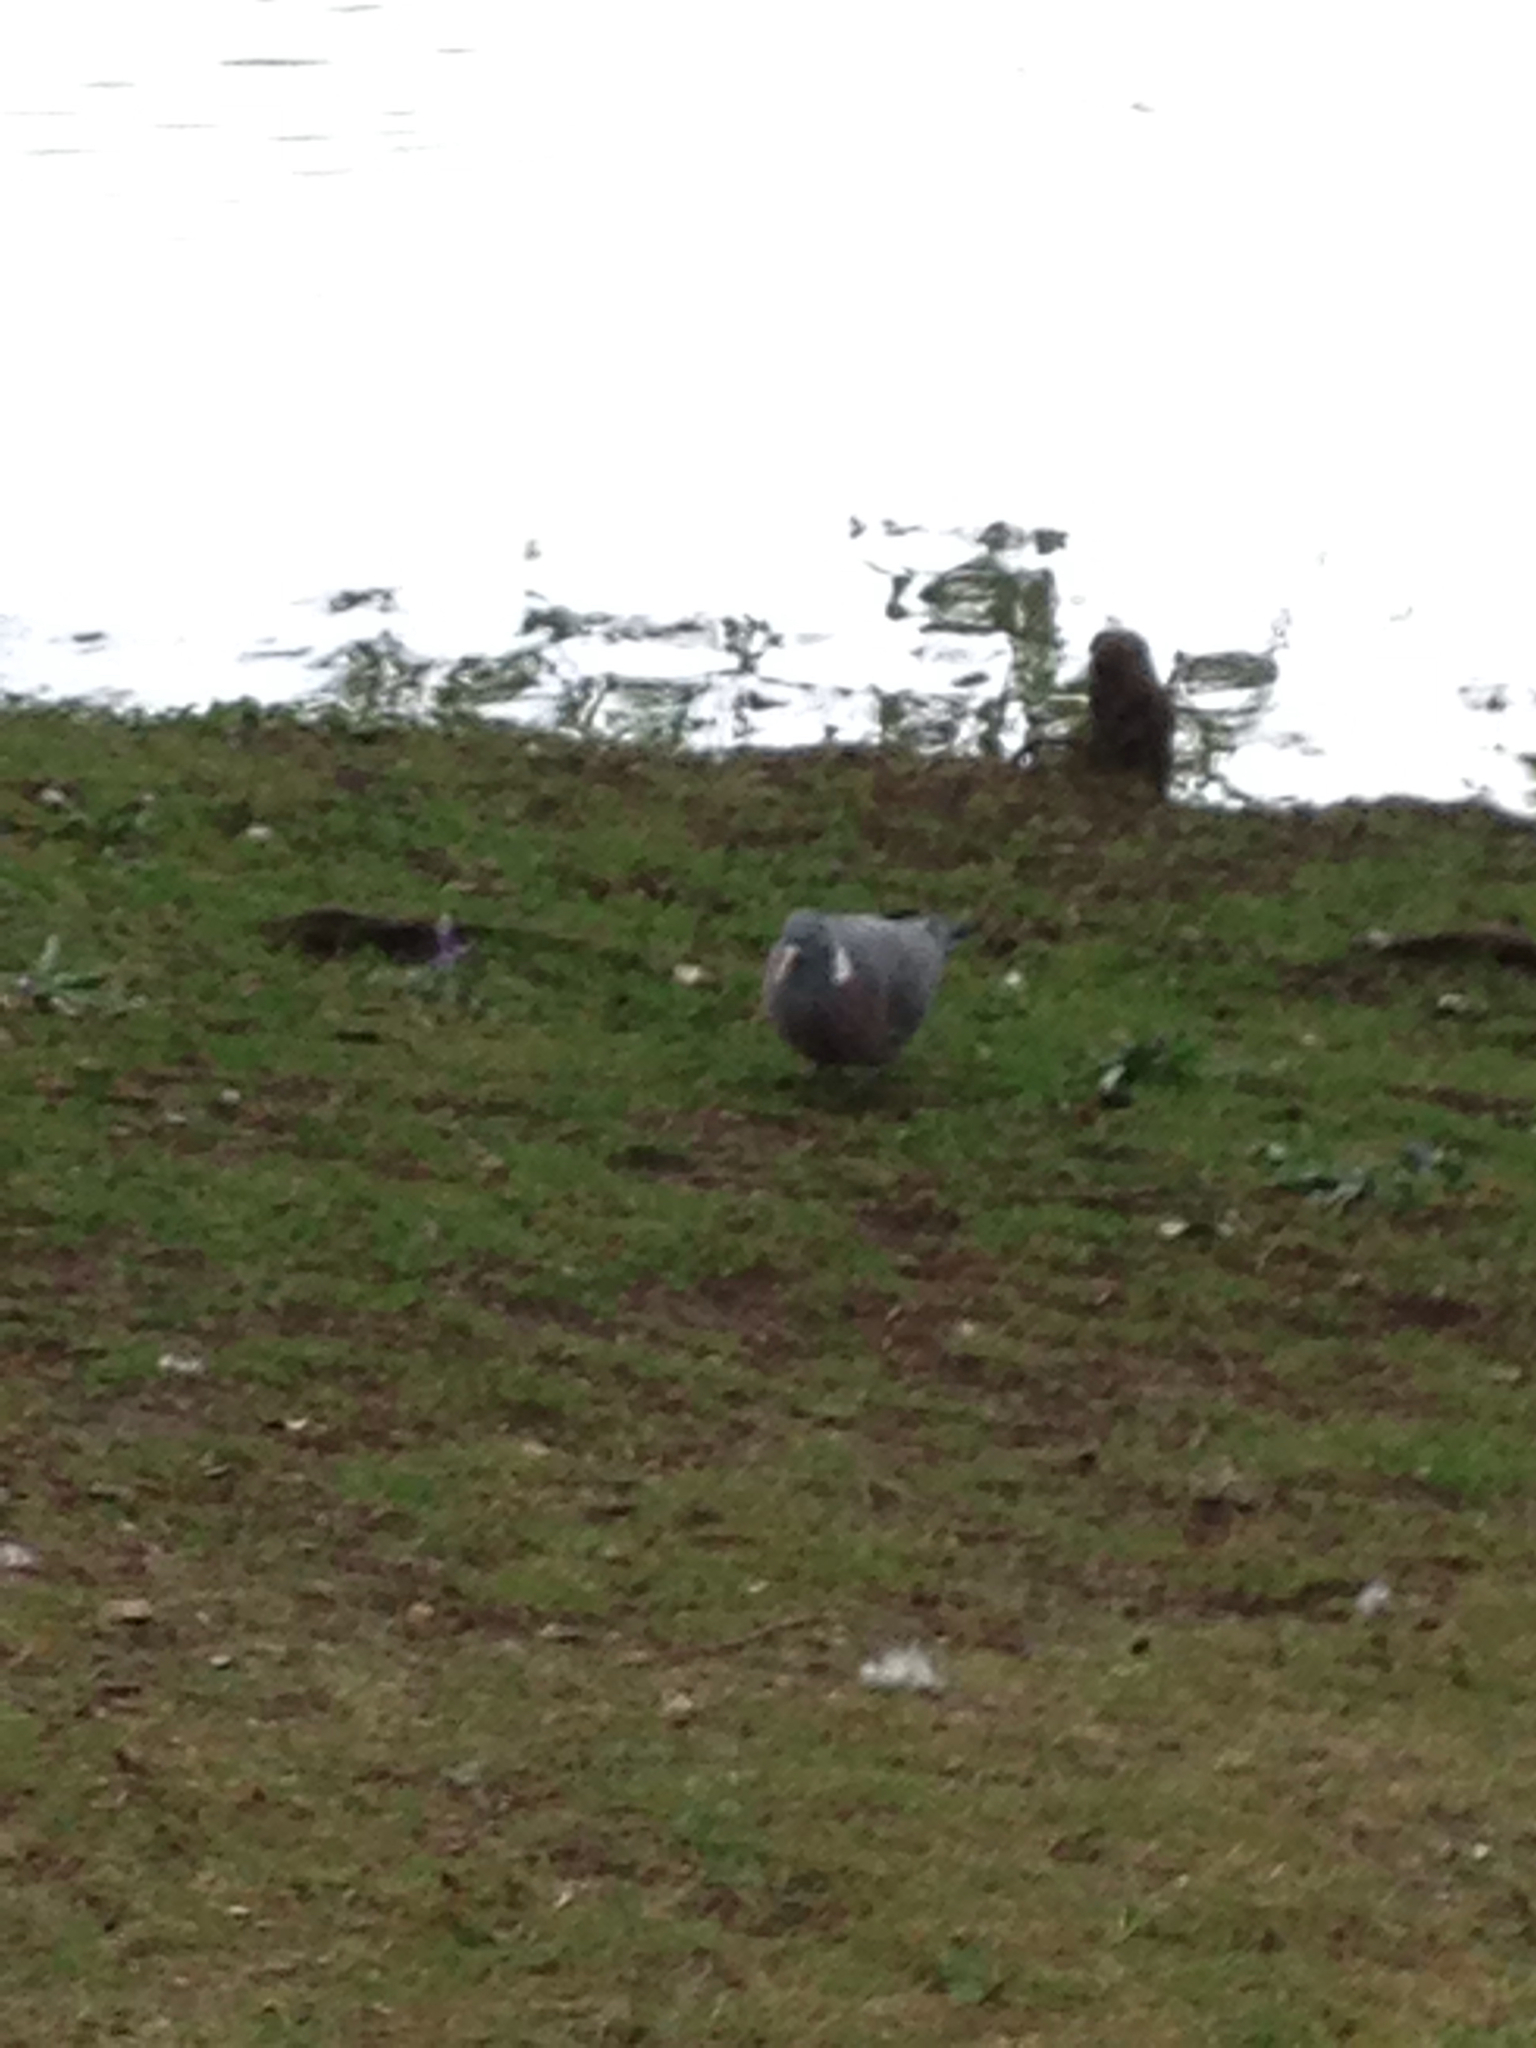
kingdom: Animalia
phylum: Chordata
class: Aves
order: Columbiformes
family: Columbidae
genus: Columba
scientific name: Columba palumbus
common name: Common wood pigeon
